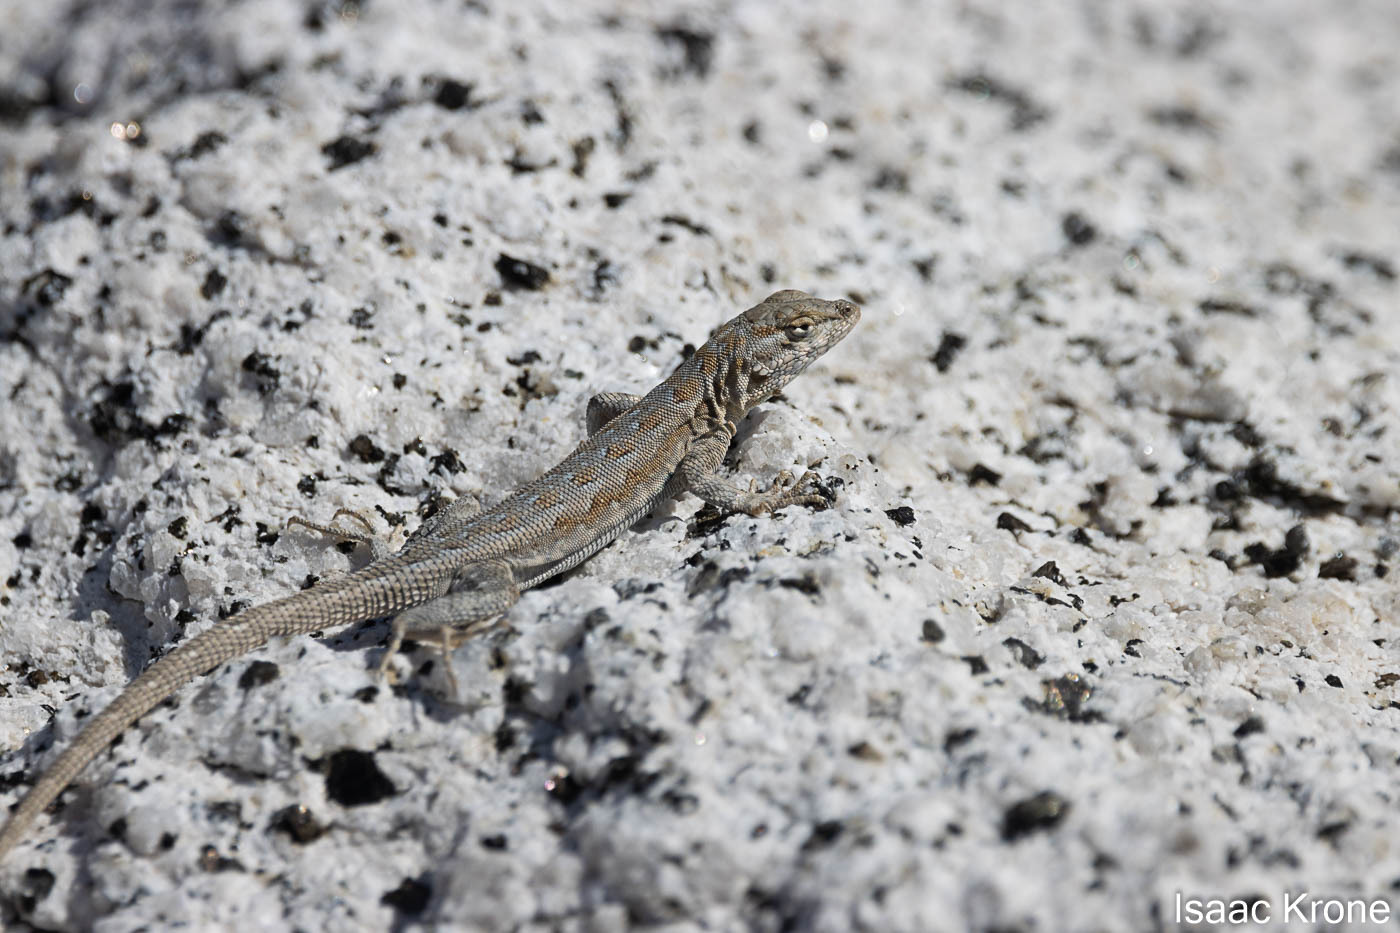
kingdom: Animalia
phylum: Chordata
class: Squamata
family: Phrynosomatidae
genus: Uta
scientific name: Uta stansburiana
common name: Side-blotched lizard
